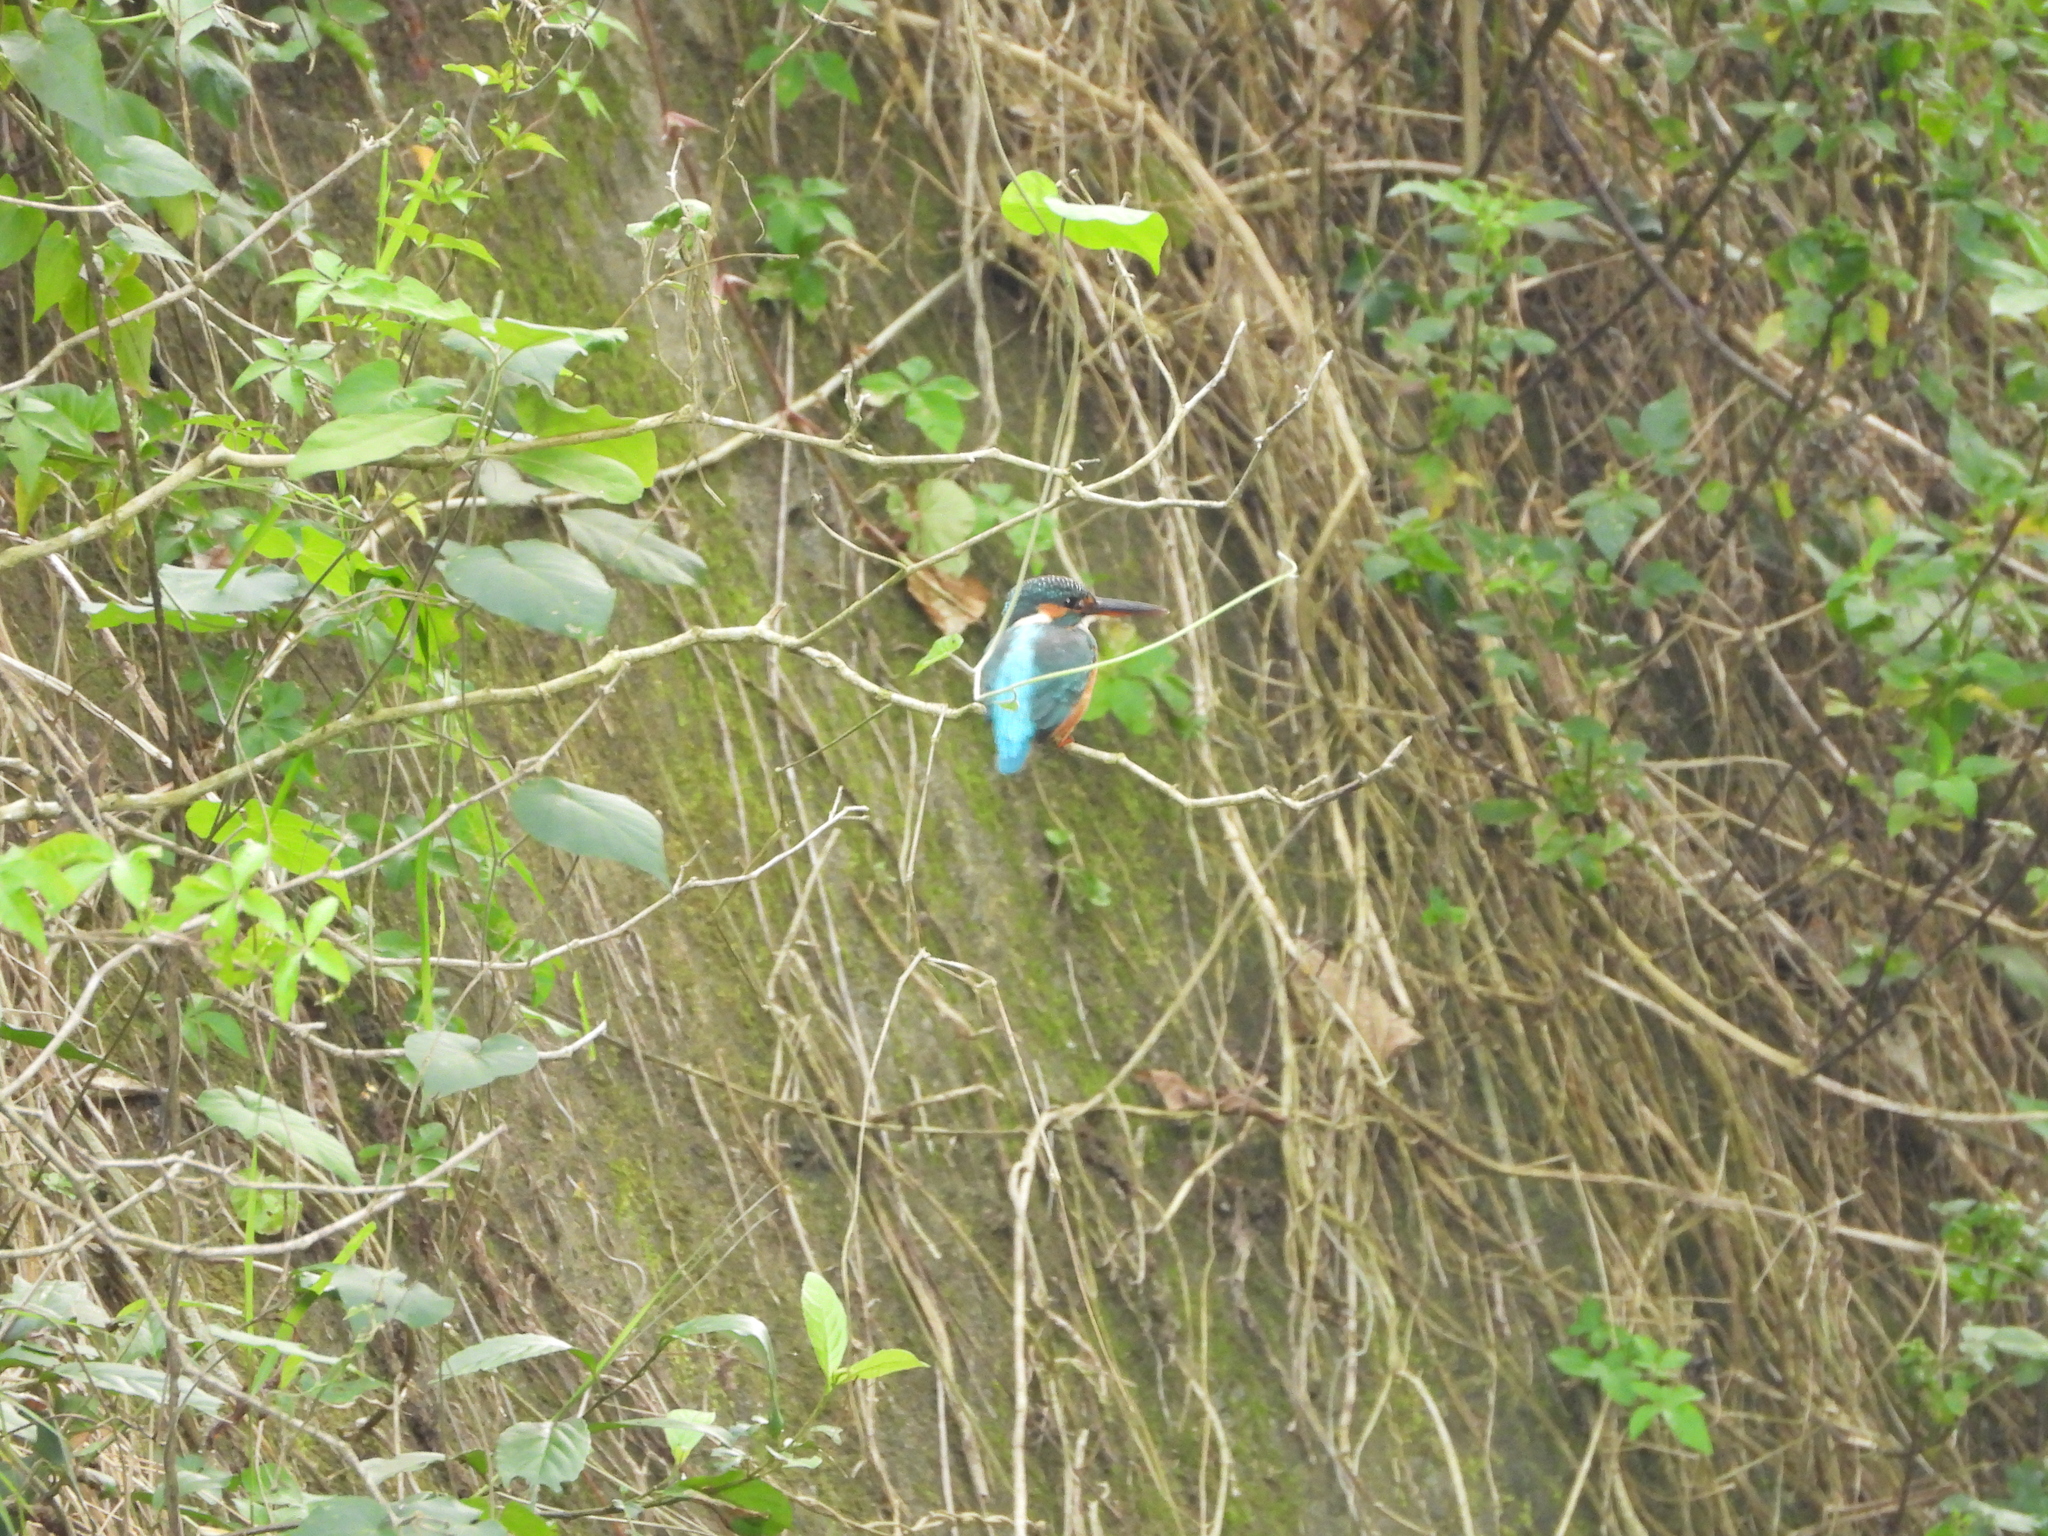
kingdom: Animalia
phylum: Chordata
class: Aves
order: Coraciiformes
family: Alcedinidae
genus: Alcedo
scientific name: Alcedo atthis
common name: Common kingfisher
